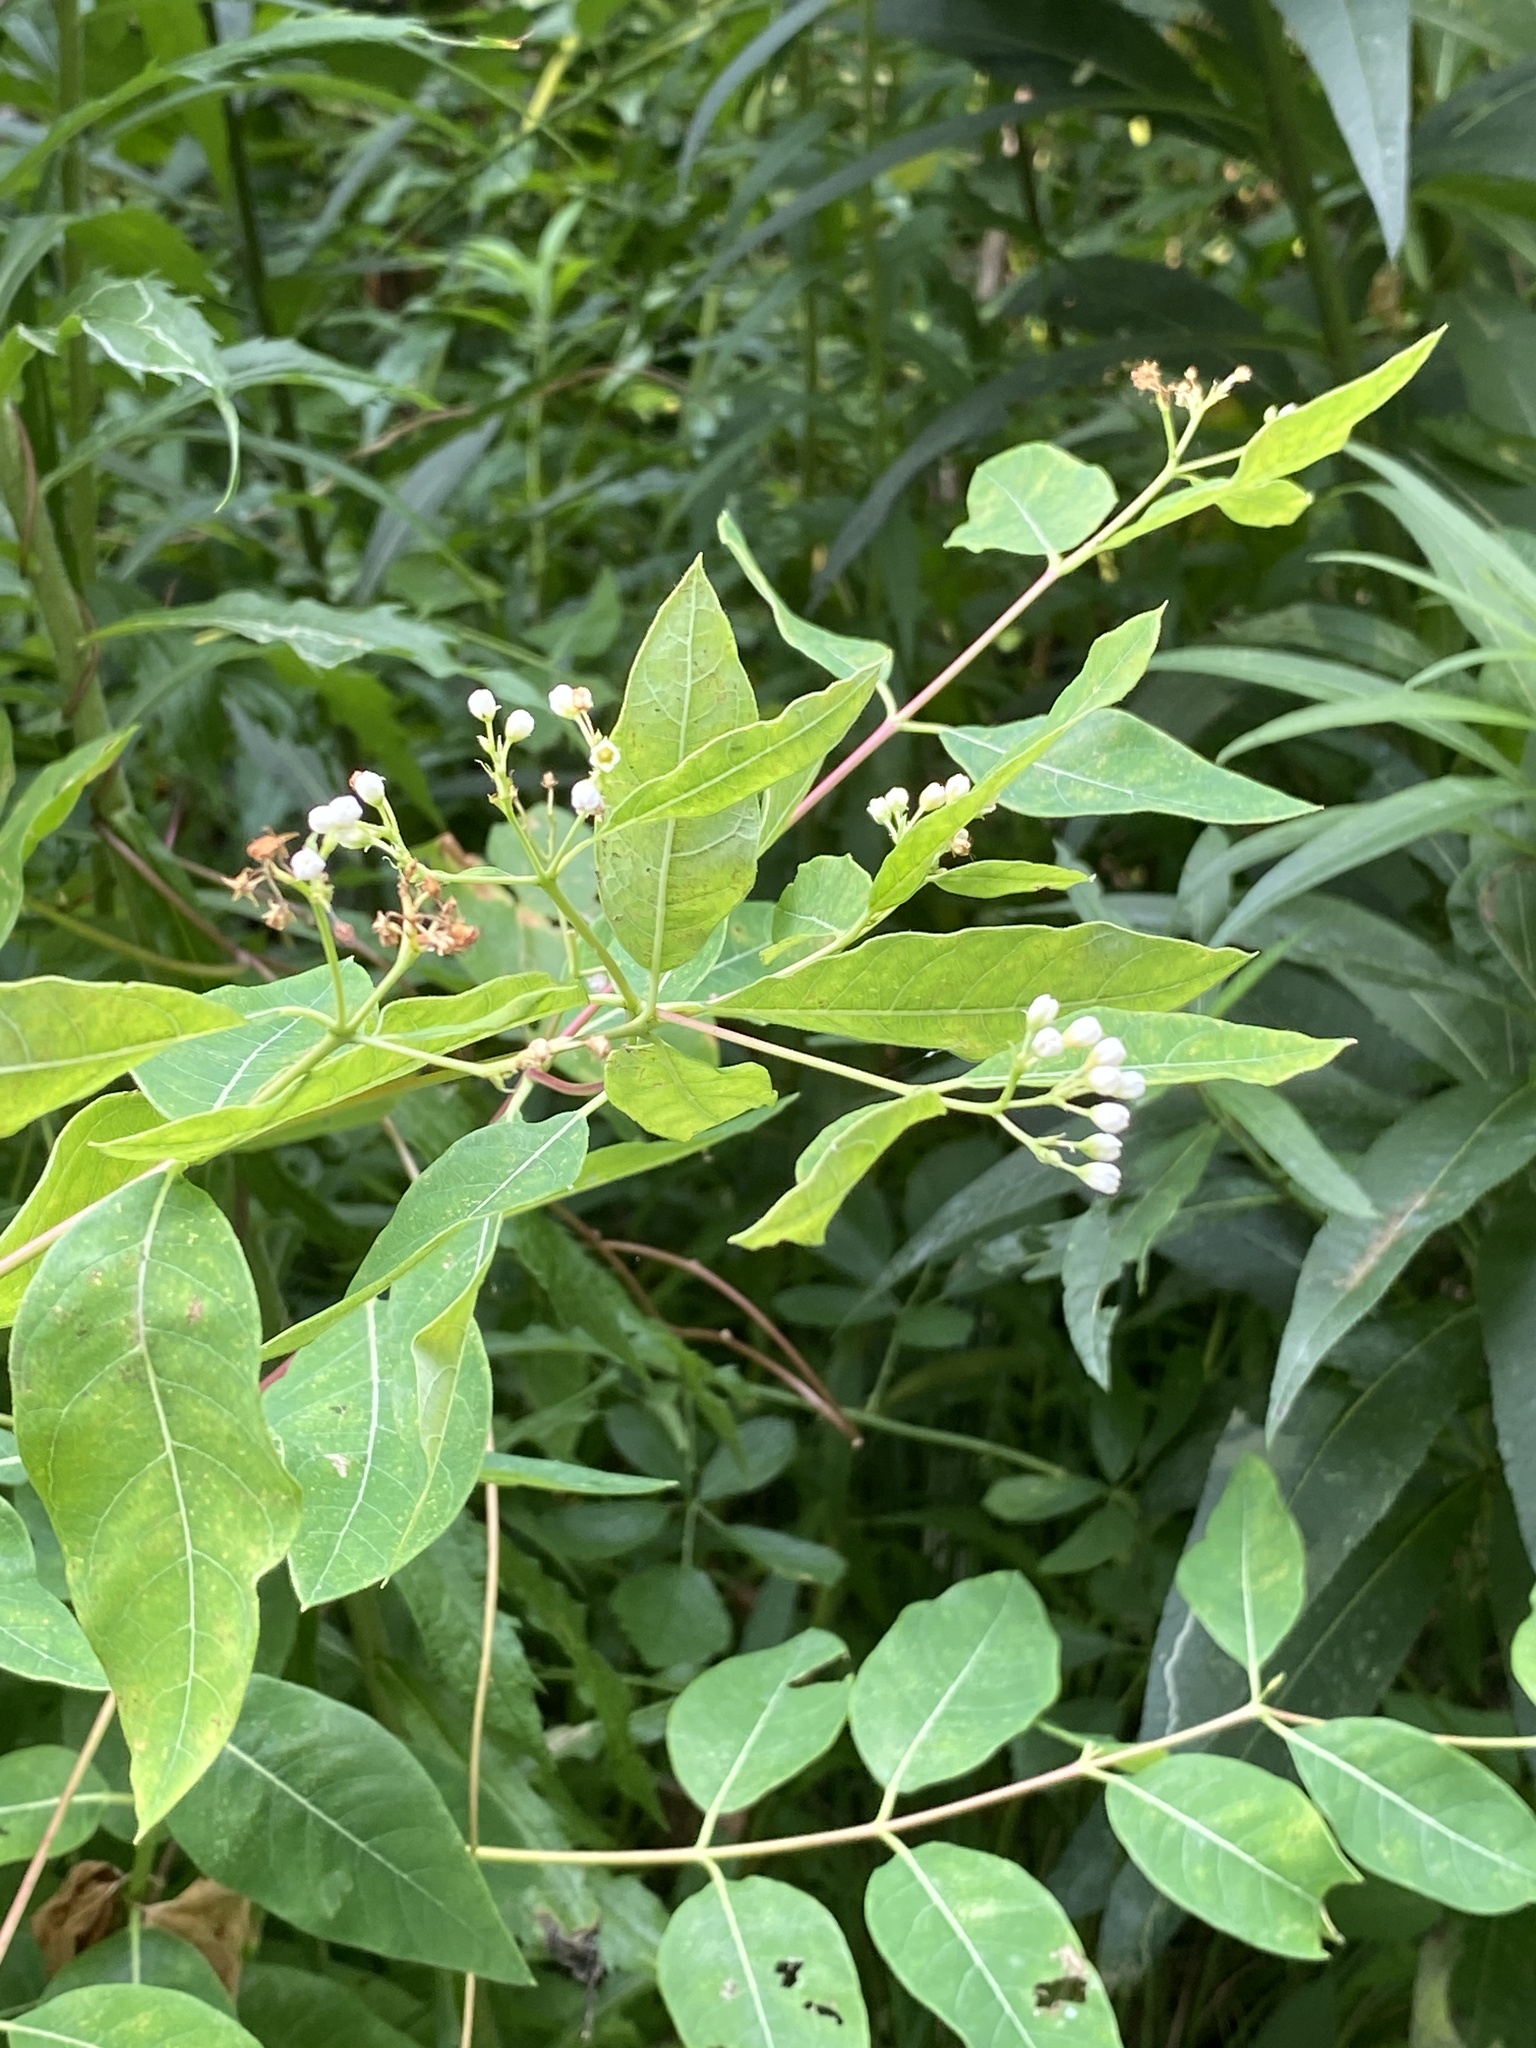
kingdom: Plantae
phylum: Tracheophyta
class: Magnoliopsida
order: Gentianales
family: Apocynaceae
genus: Apocynum
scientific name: Apocynum cannabinum
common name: Hemp dogbane
